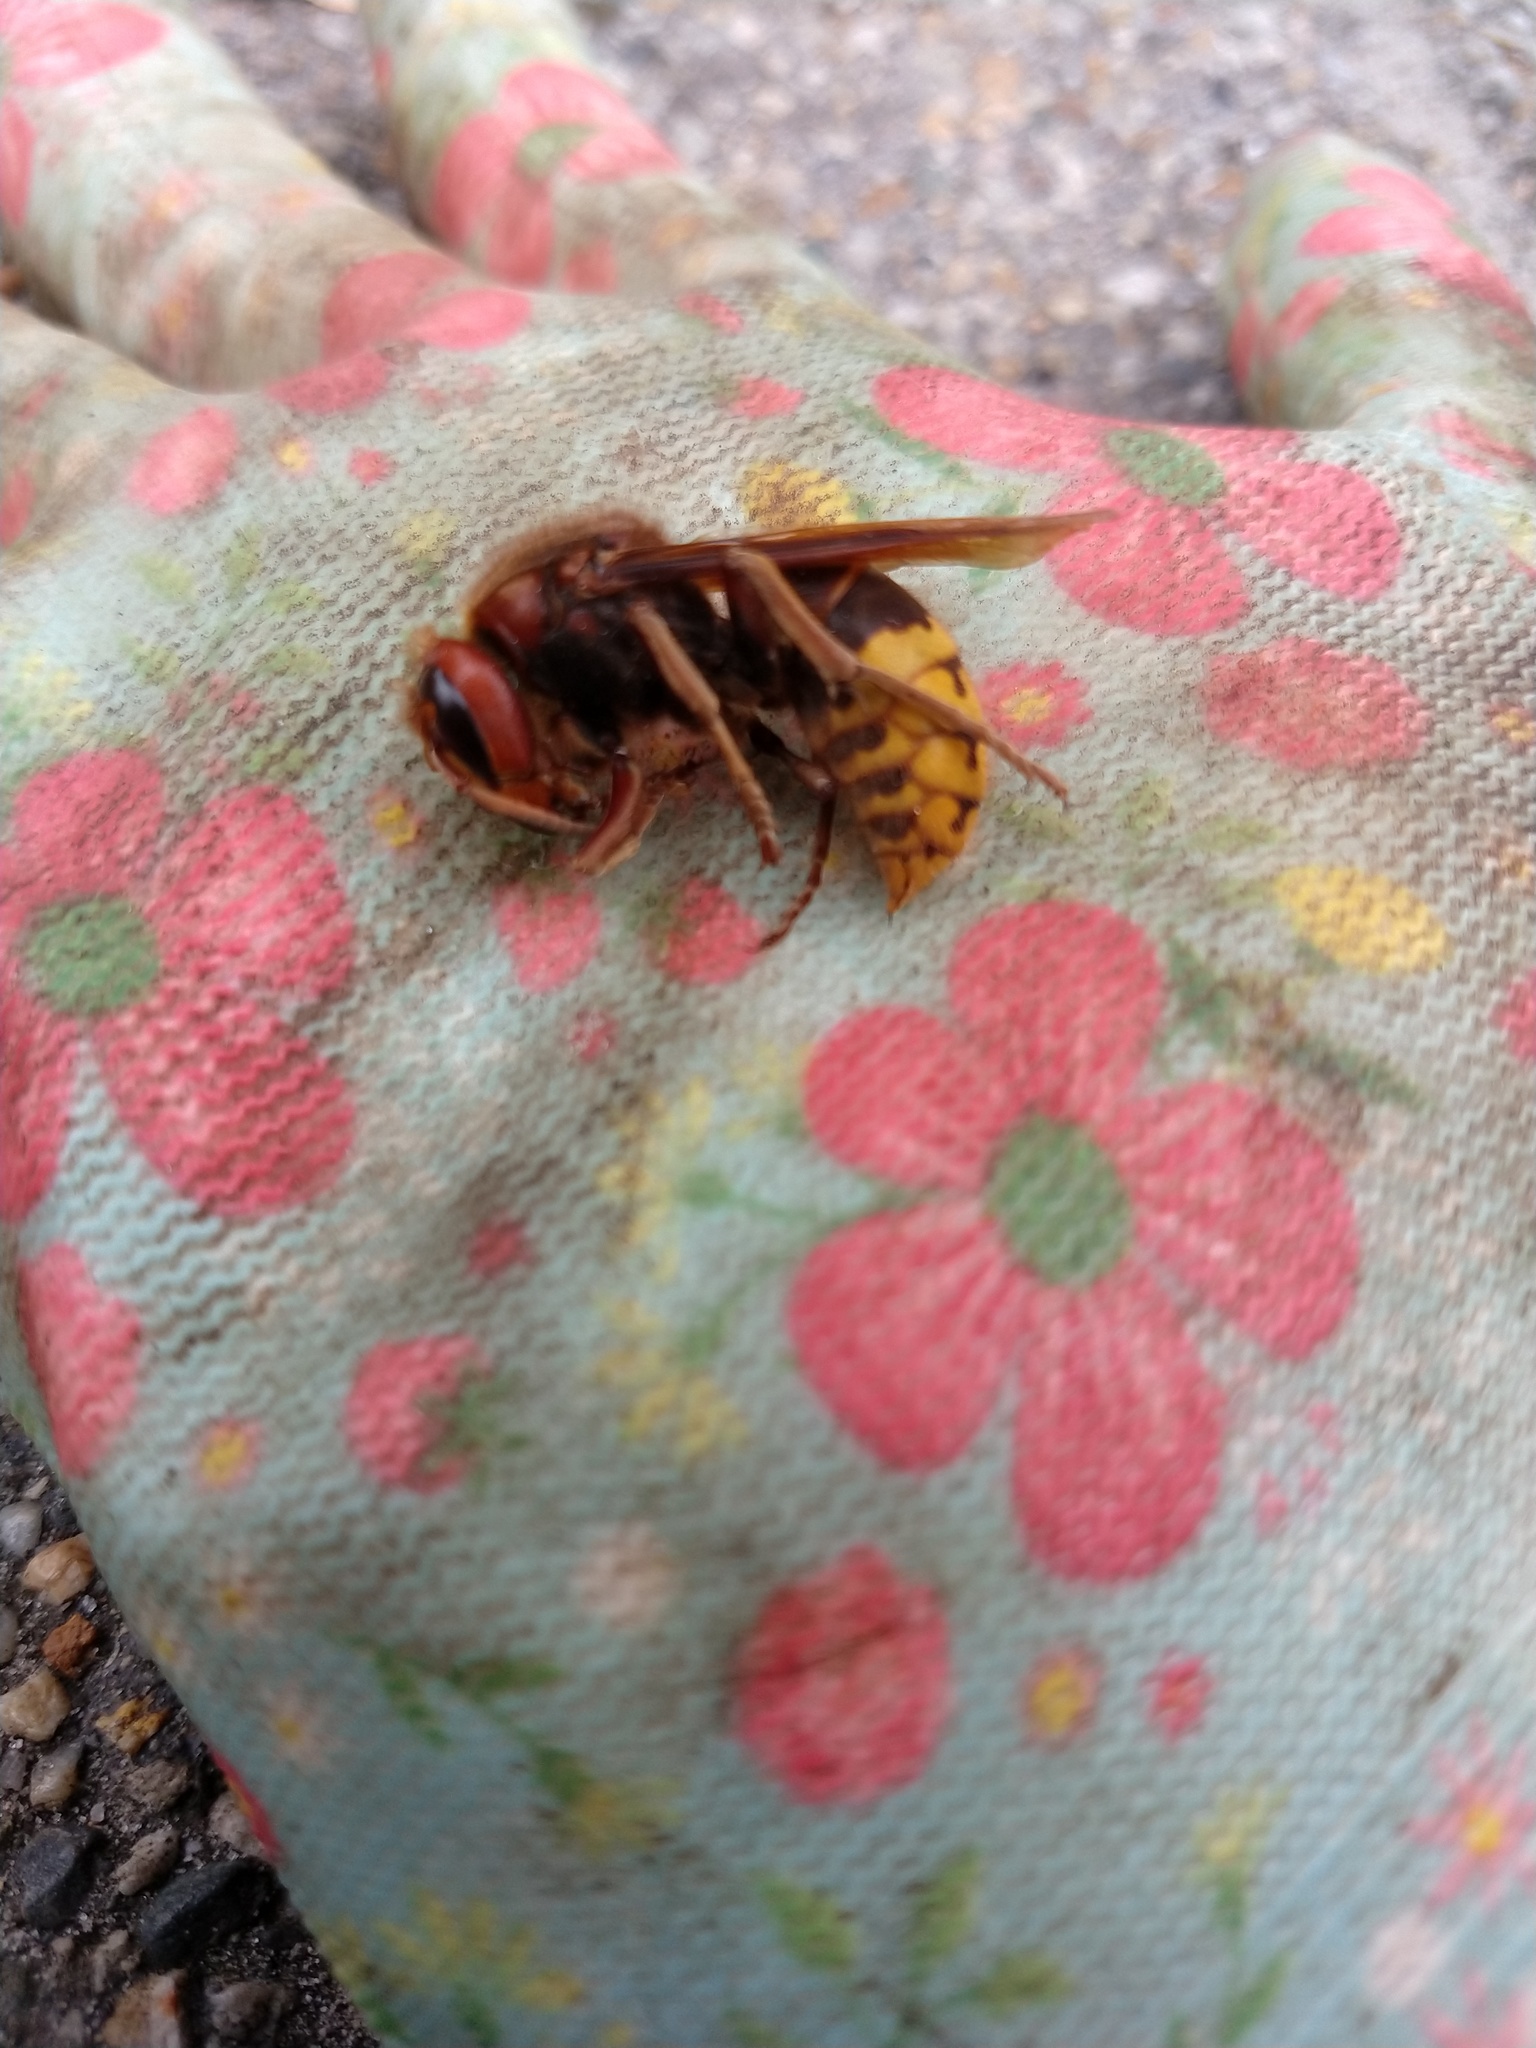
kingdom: Animalia
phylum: Arthropoda
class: Insecta
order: Hymenoptera
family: Vespidae
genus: Vespa
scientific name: Vespa crabro
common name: Hornet
